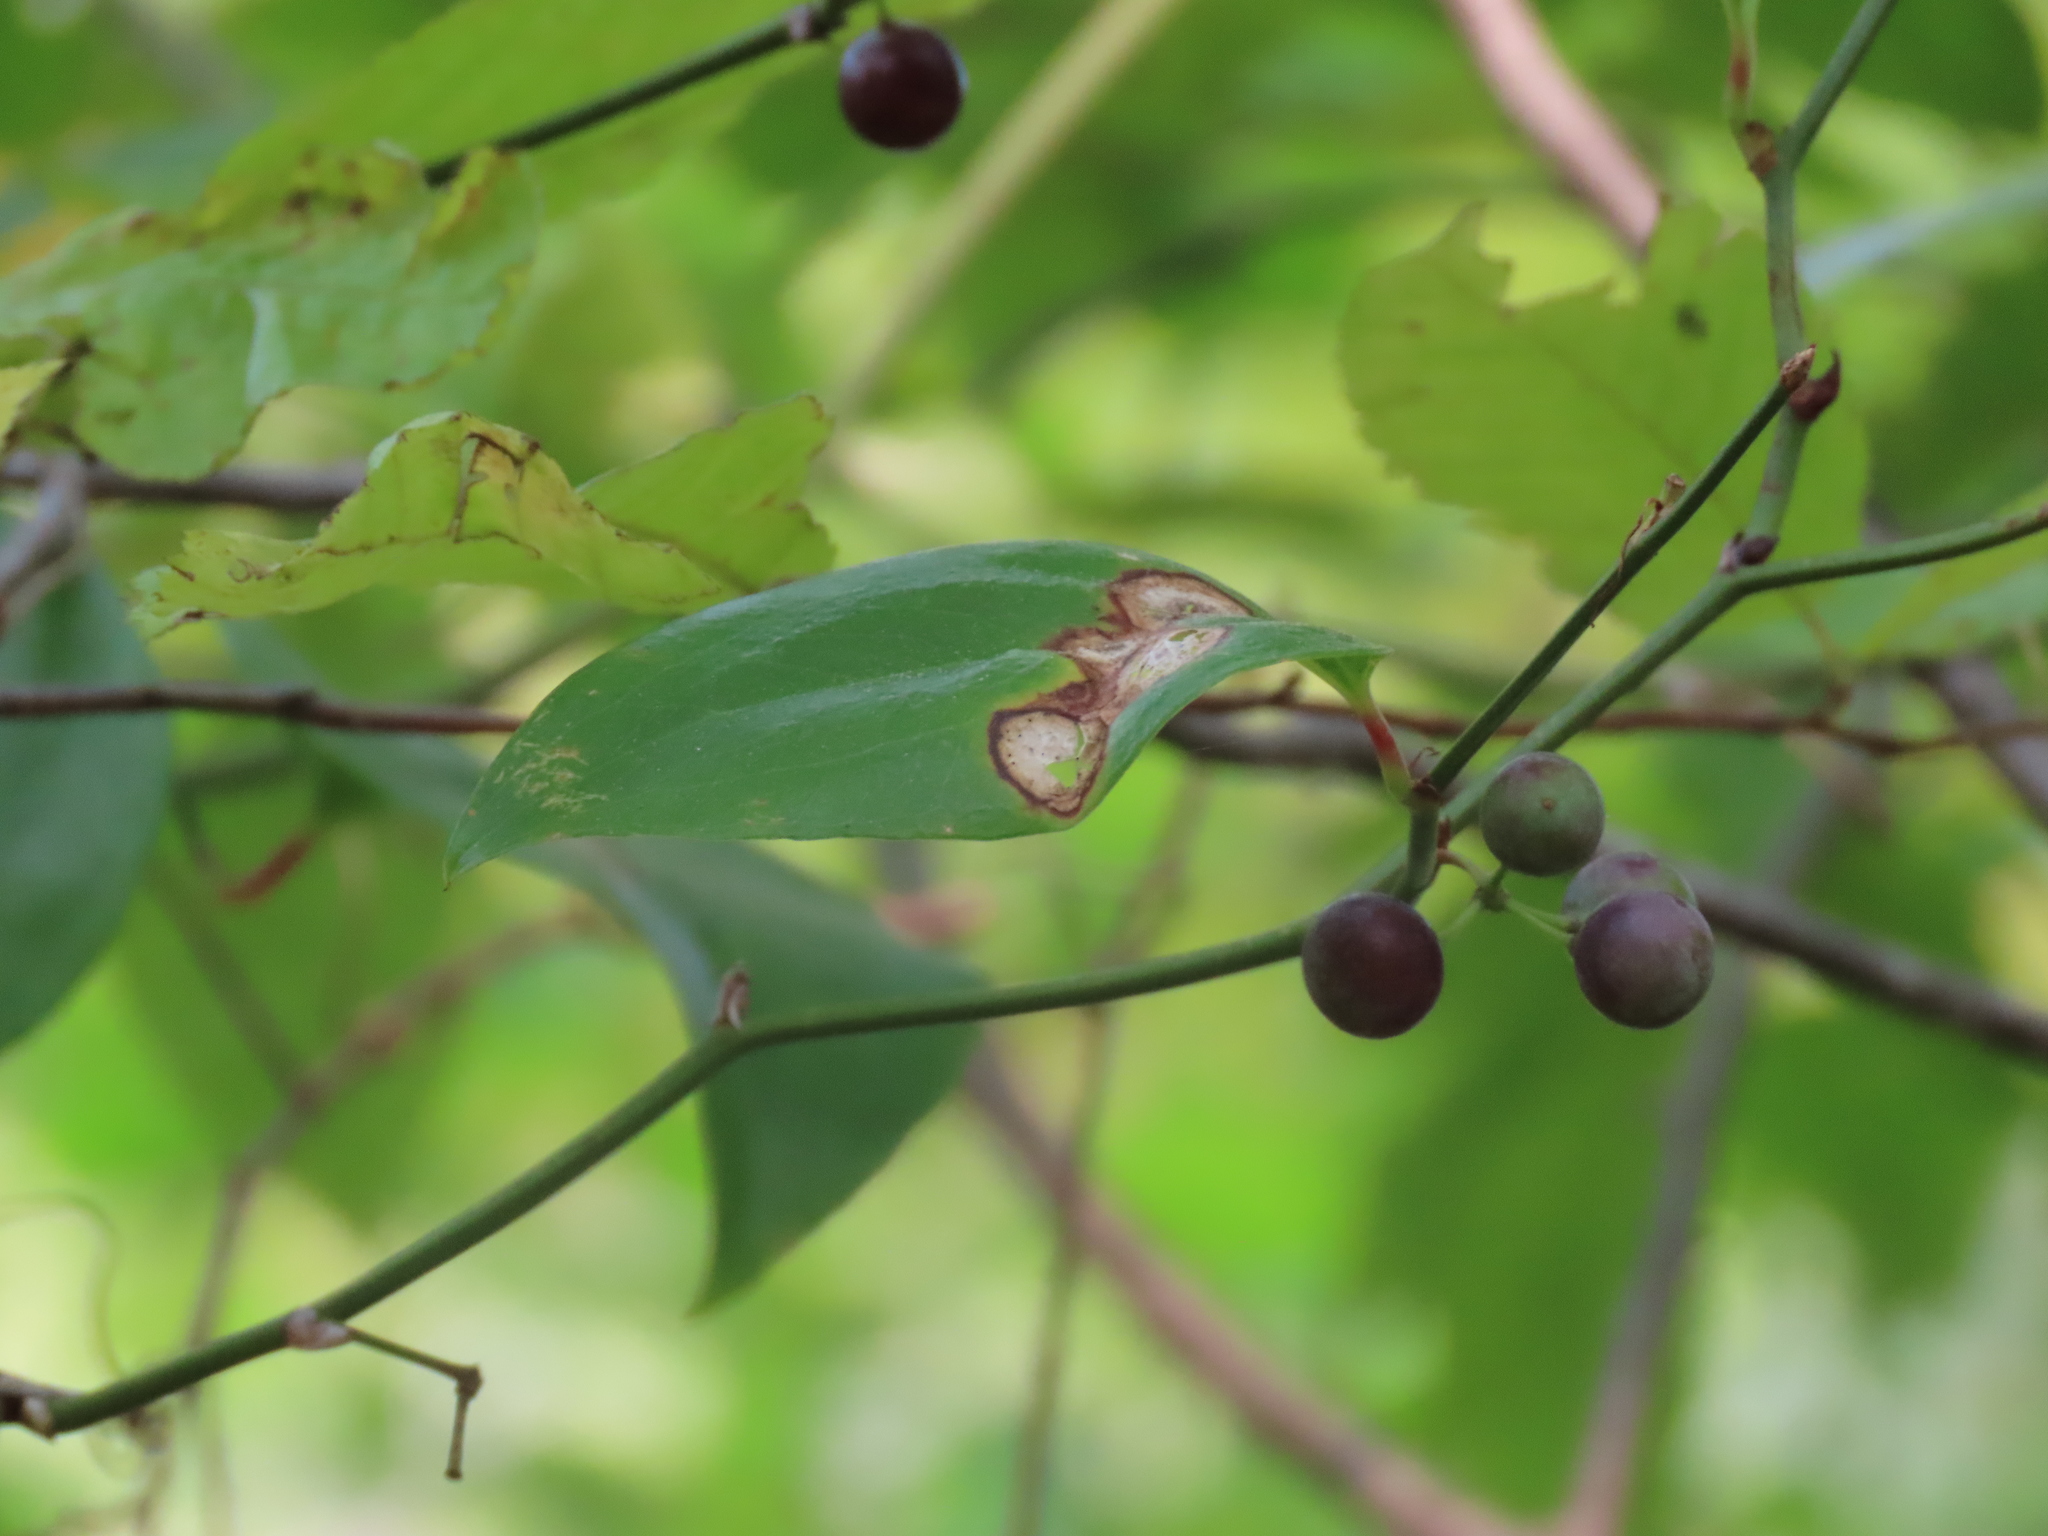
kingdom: Plantae
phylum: Tracheophyta
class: Liliopsida
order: Liliales
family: Smilacaceae
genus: Smilax
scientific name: Smilax rotundifolia
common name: Bullbriar
